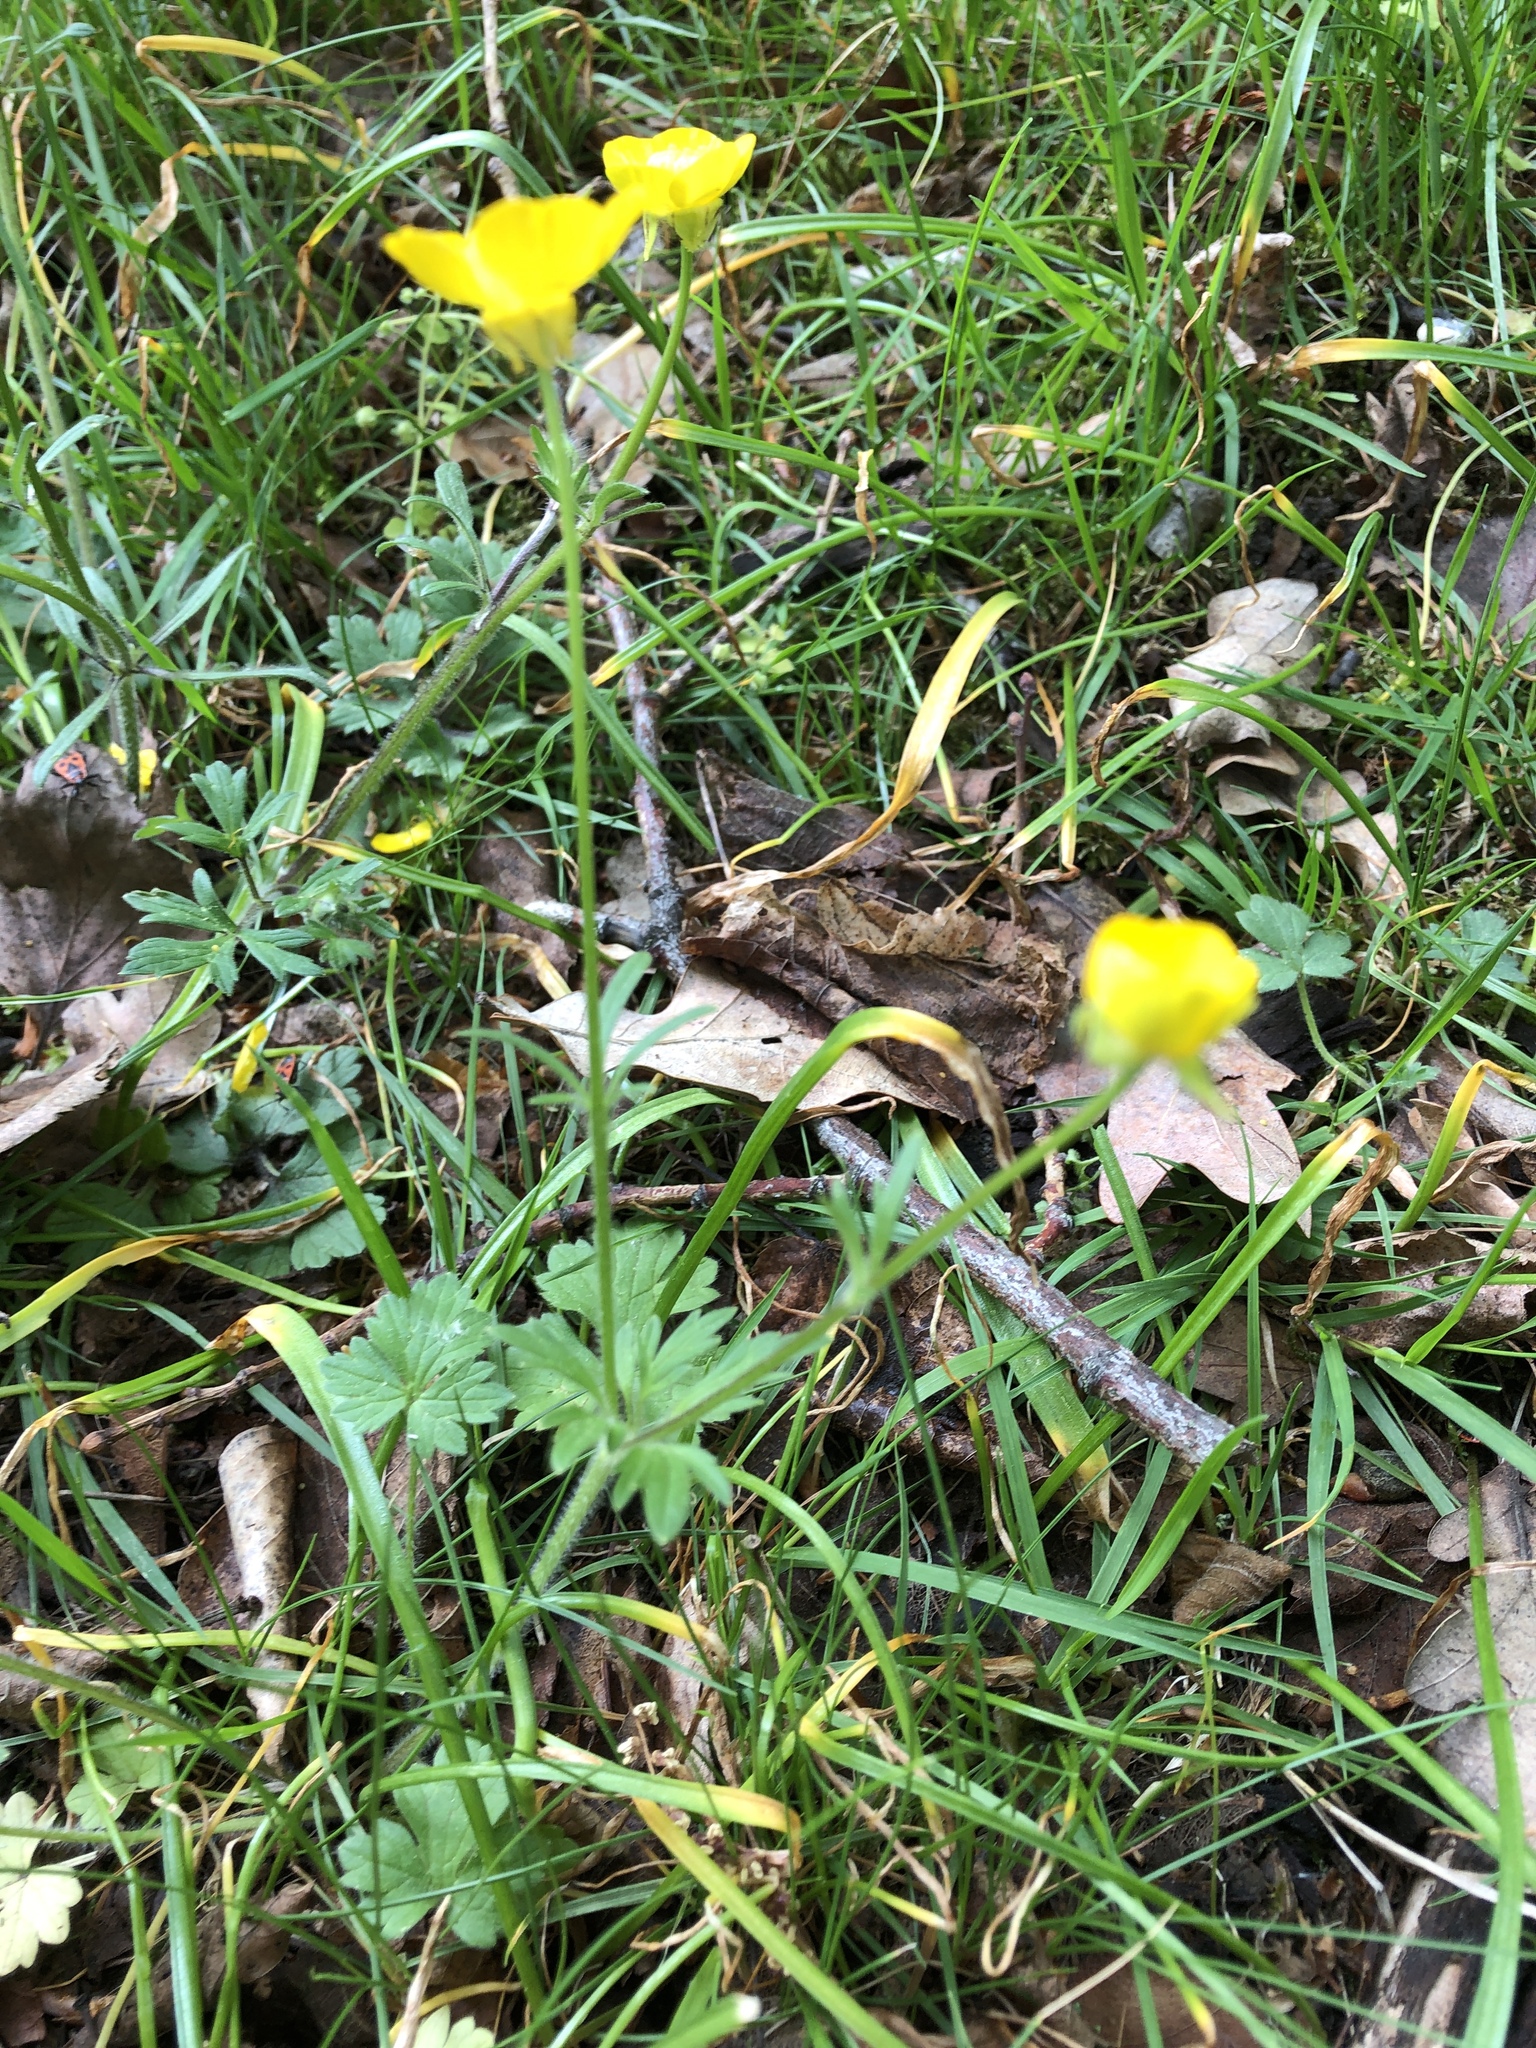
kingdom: Plantae
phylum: Tracheophyta
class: Magnoliopsida
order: Ranunculales
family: Ranunculaceae
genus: Ranunculus
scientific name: Ranunculus bulbosus
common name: Bulbous buttercup
